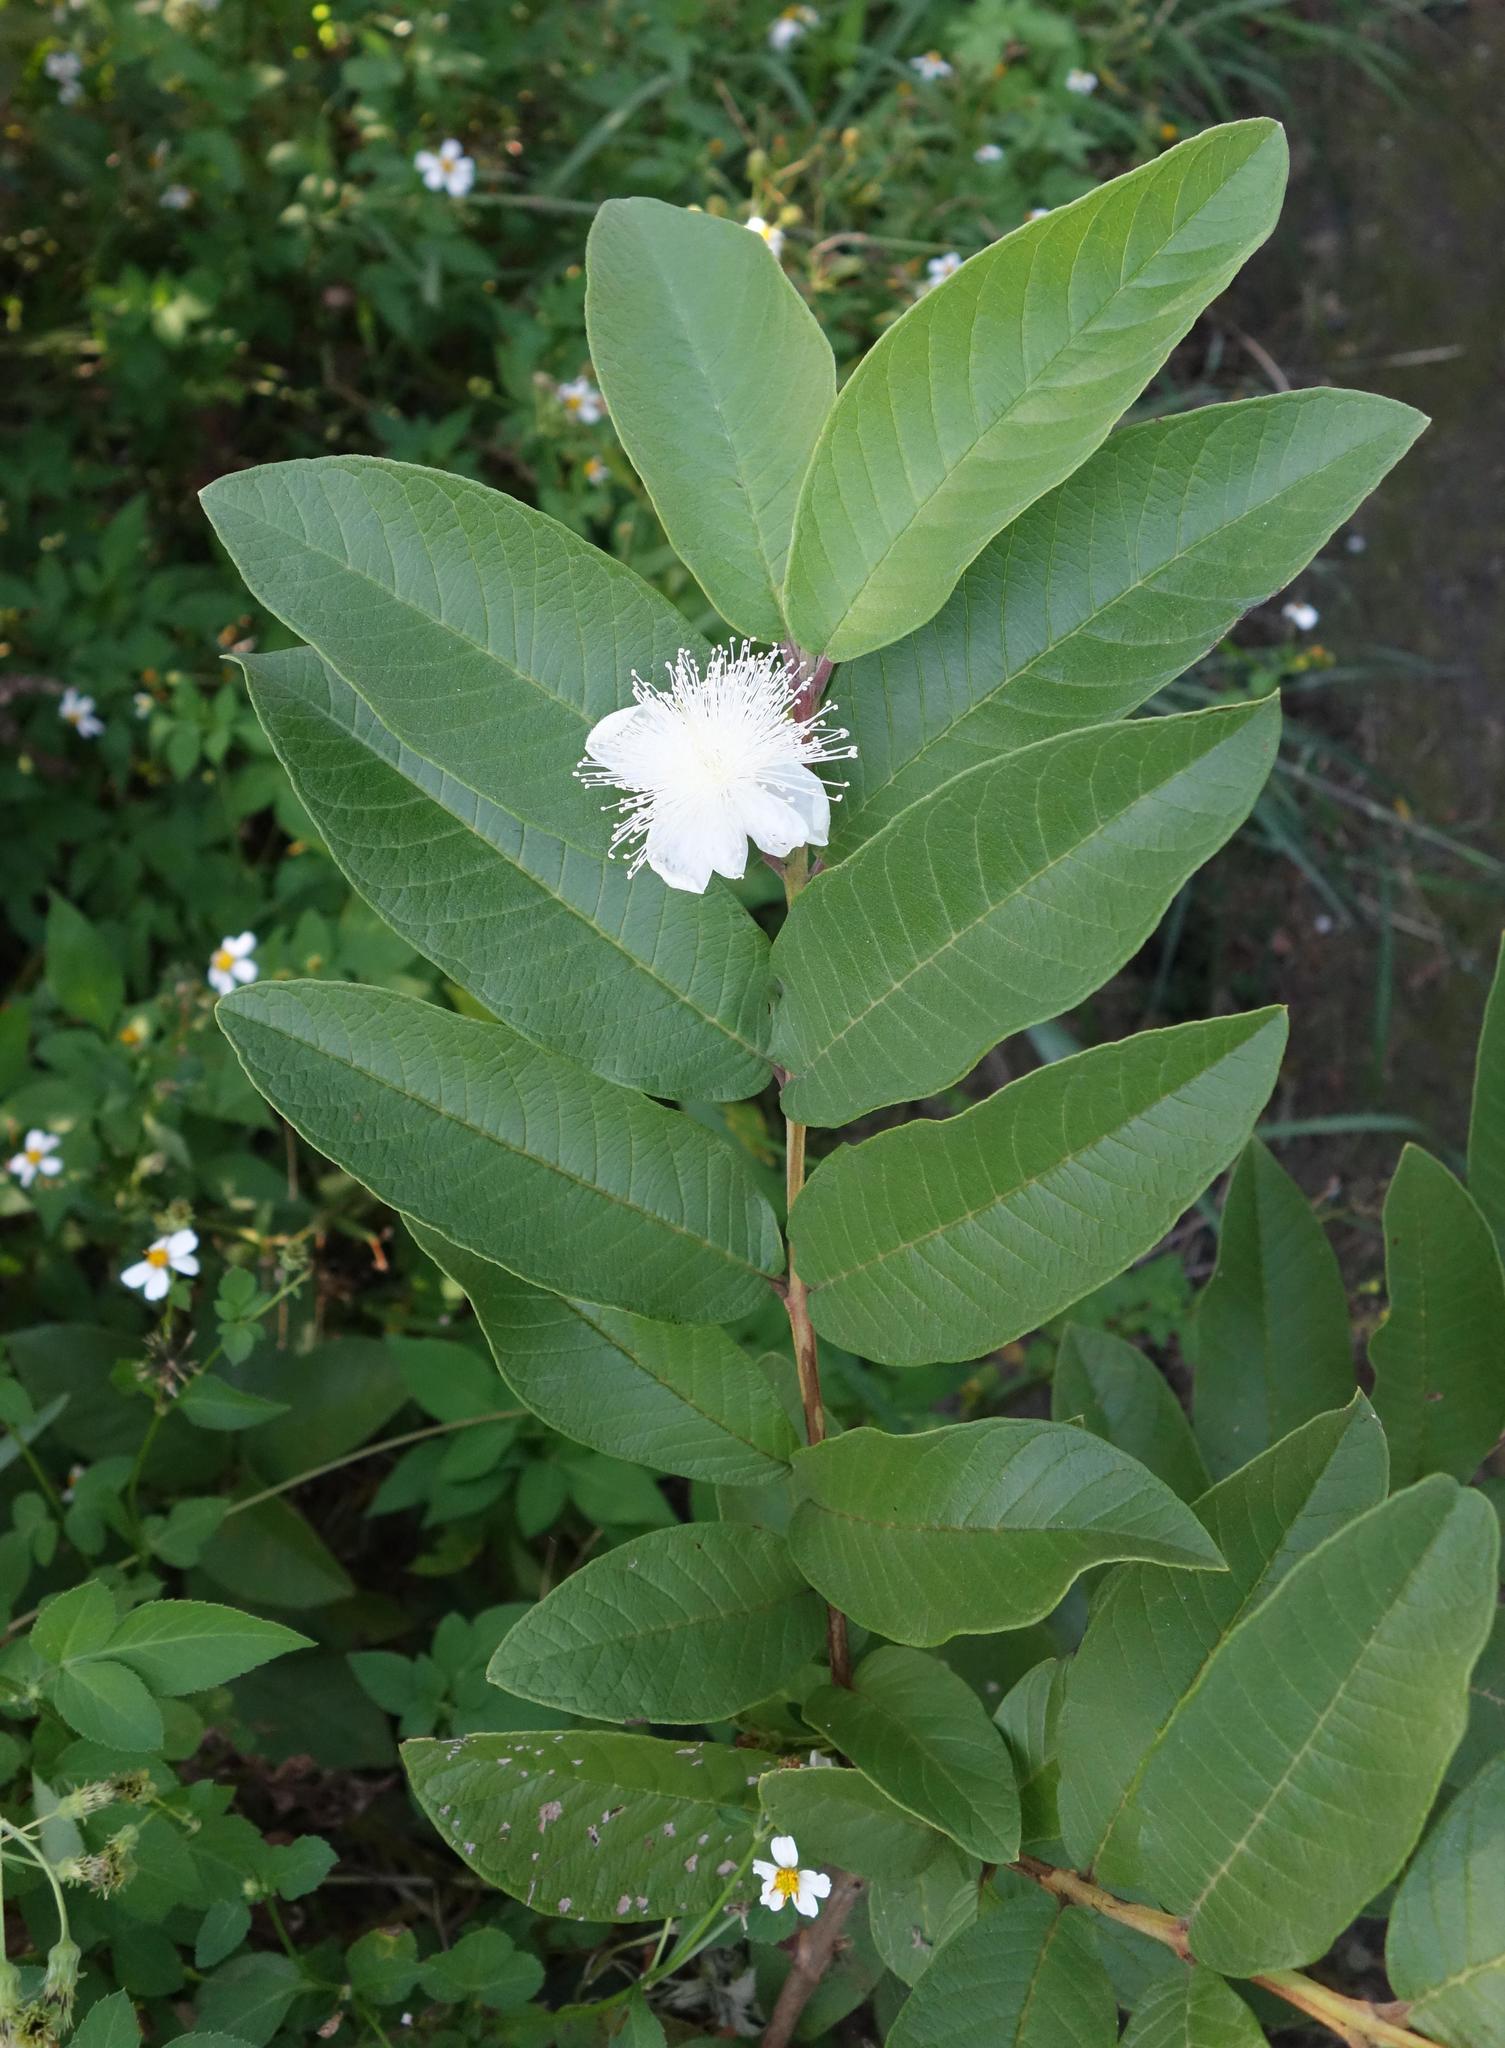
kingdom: Plantae
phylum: Tracheophyta
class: Magnoliopsida
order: Myrtales
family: Myrtaceae
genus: Psidium
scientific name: Psidium guajava
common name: Guava
